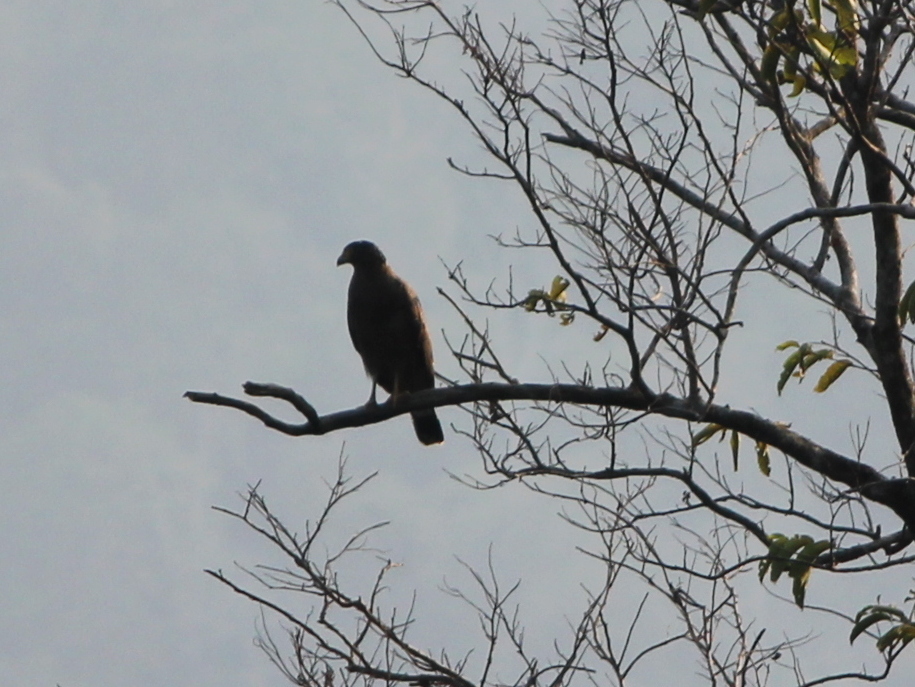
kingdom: Animalia
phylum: Chordata
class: Aves
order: Accipitriformes
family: Accipitridae
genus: Spilornis
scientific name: Spilornis cheela
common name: Crested serpent eagle
